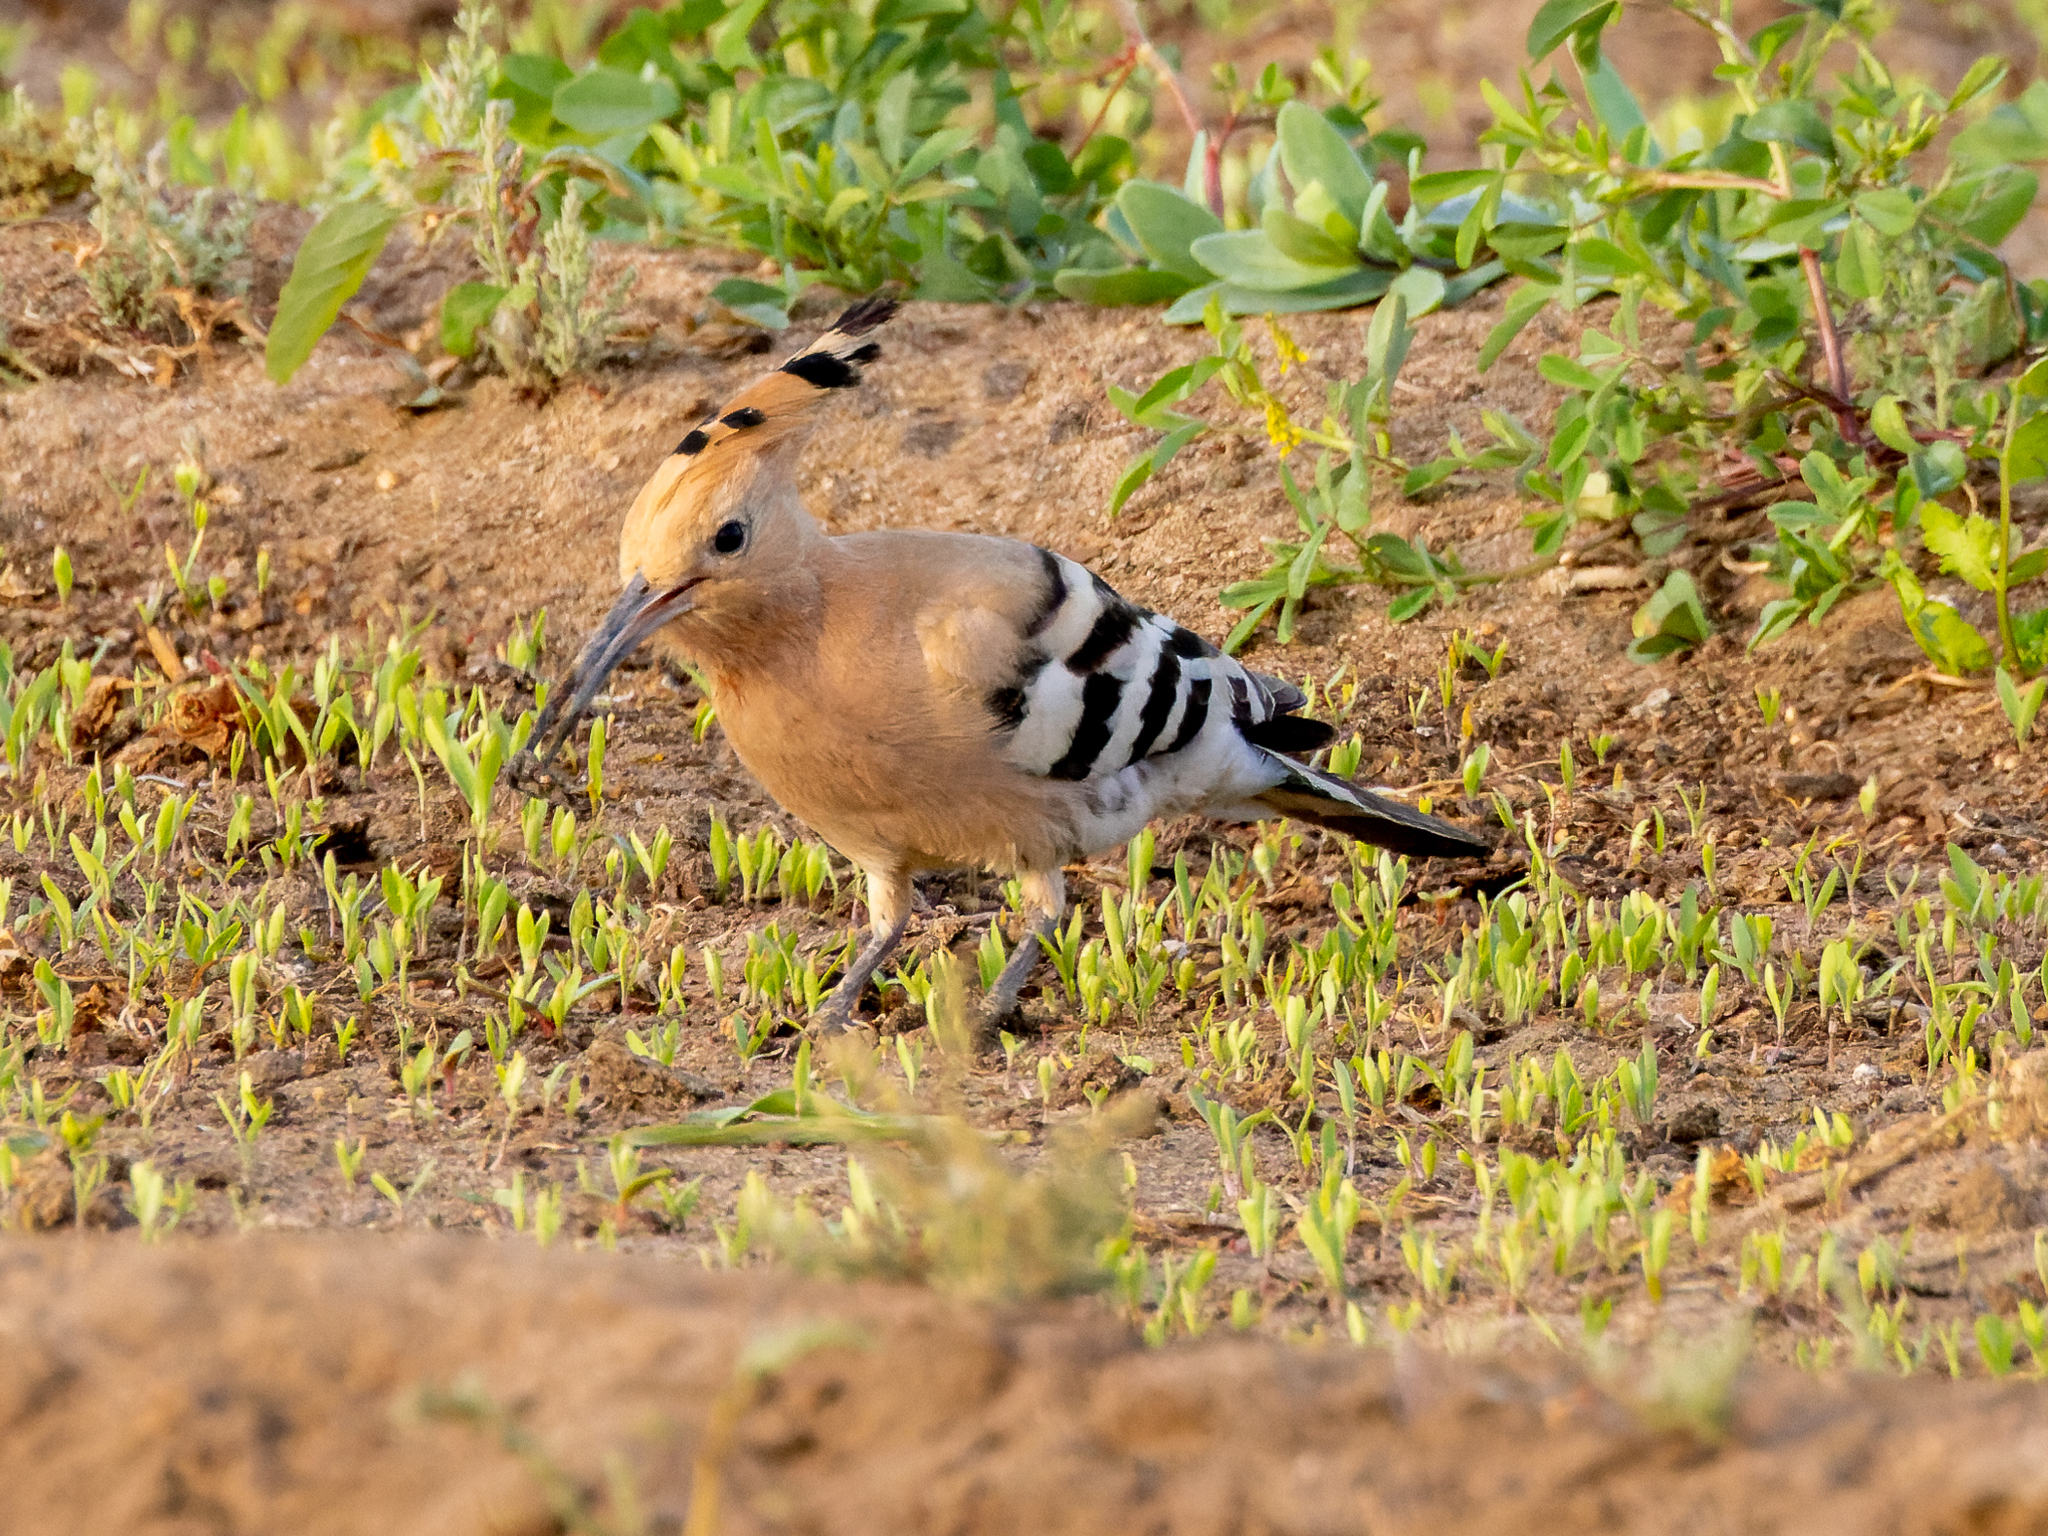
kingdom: Animalia
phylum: Chordata
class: Aves
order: Bucerotiformes
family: Upupidae
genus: Upupa
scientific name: Upupa epops
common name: Eurasian hoopoe
